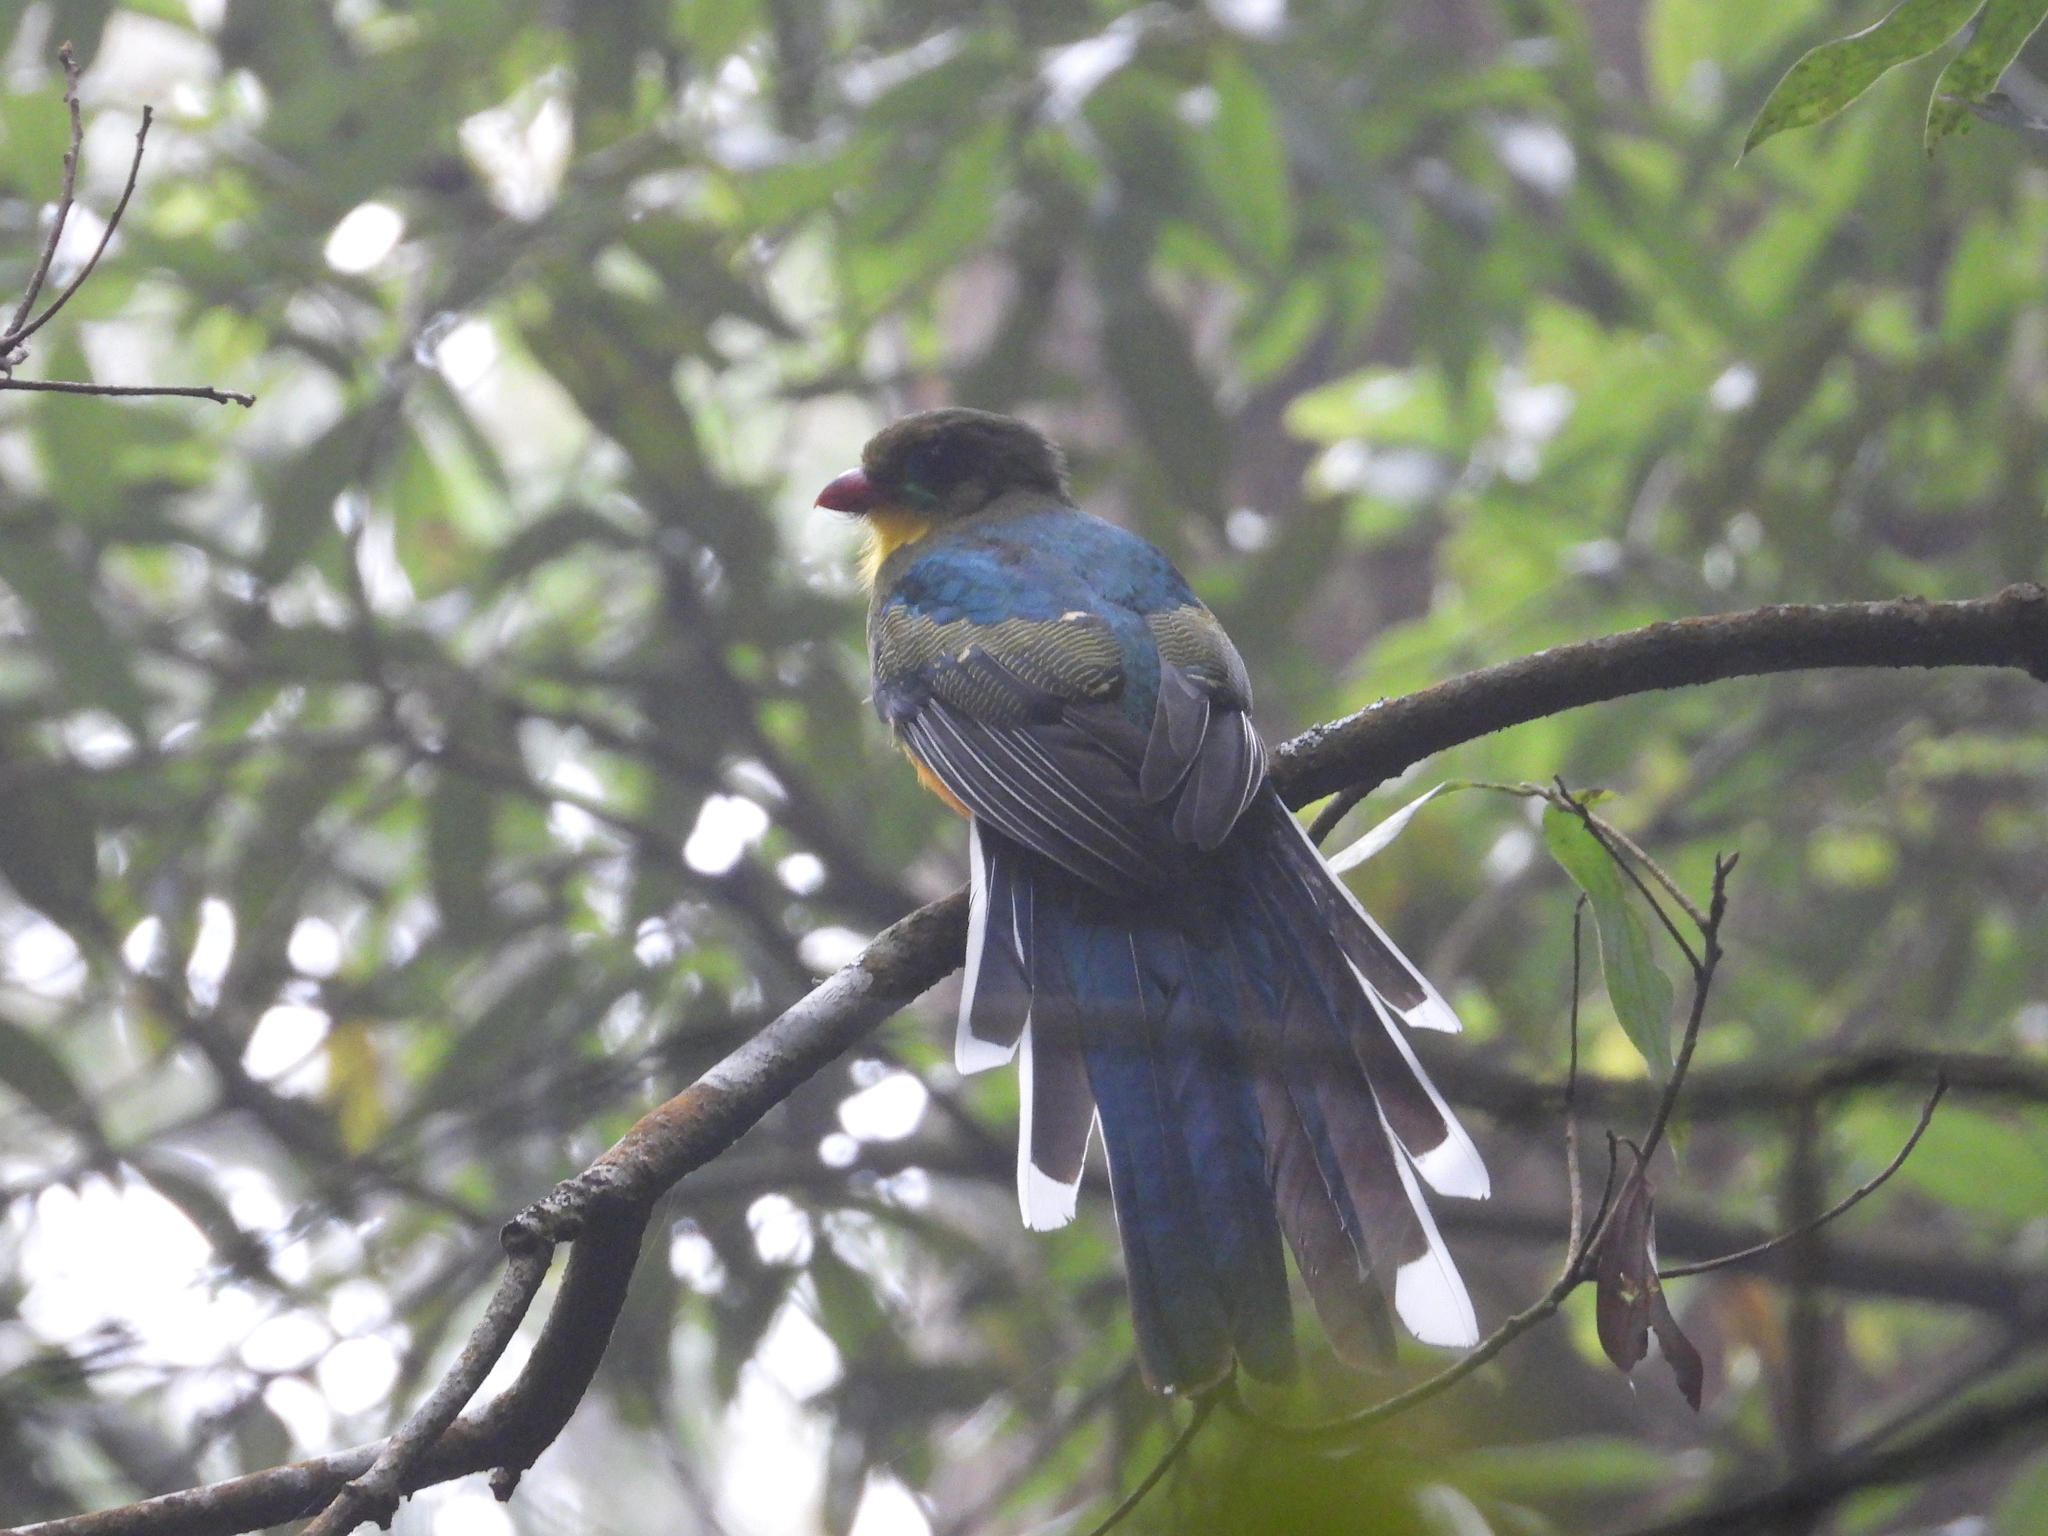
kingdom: Animalia
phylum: Chordata
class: Aves
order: Trogoniformes
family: Trogonidae
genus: Apalharpactes
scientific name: Apalharpactes reinwardtii
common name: Javan trogon
